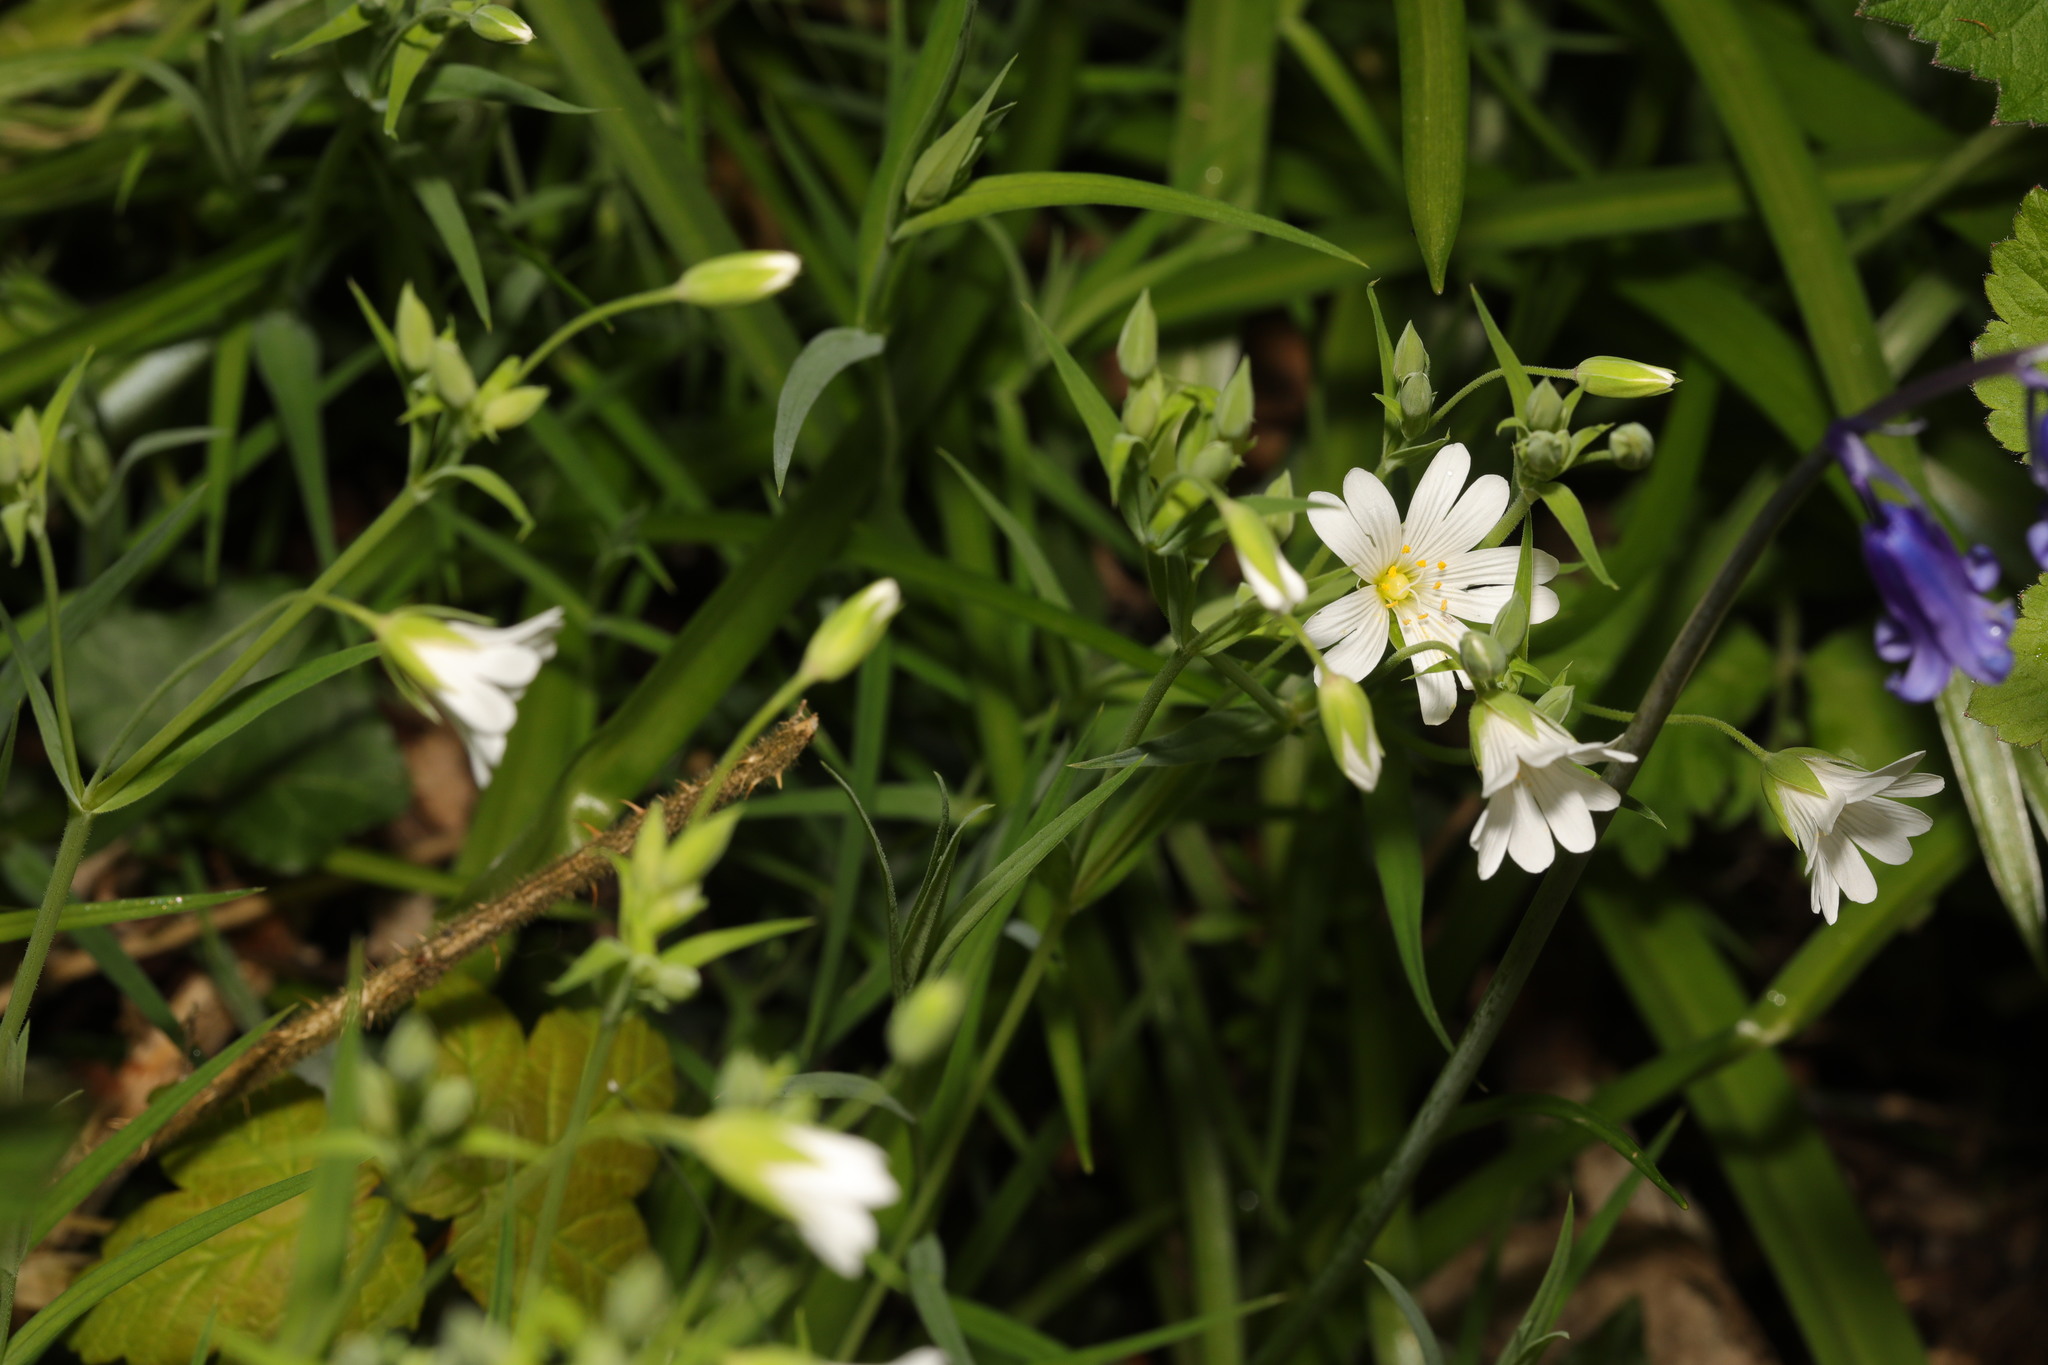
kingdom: Plantae
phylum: Tracheophyta
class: Magnoliopsida
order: Caryophyllales
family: Caryophyllaceae
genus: Rabelera
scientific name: Rabelera holostea
